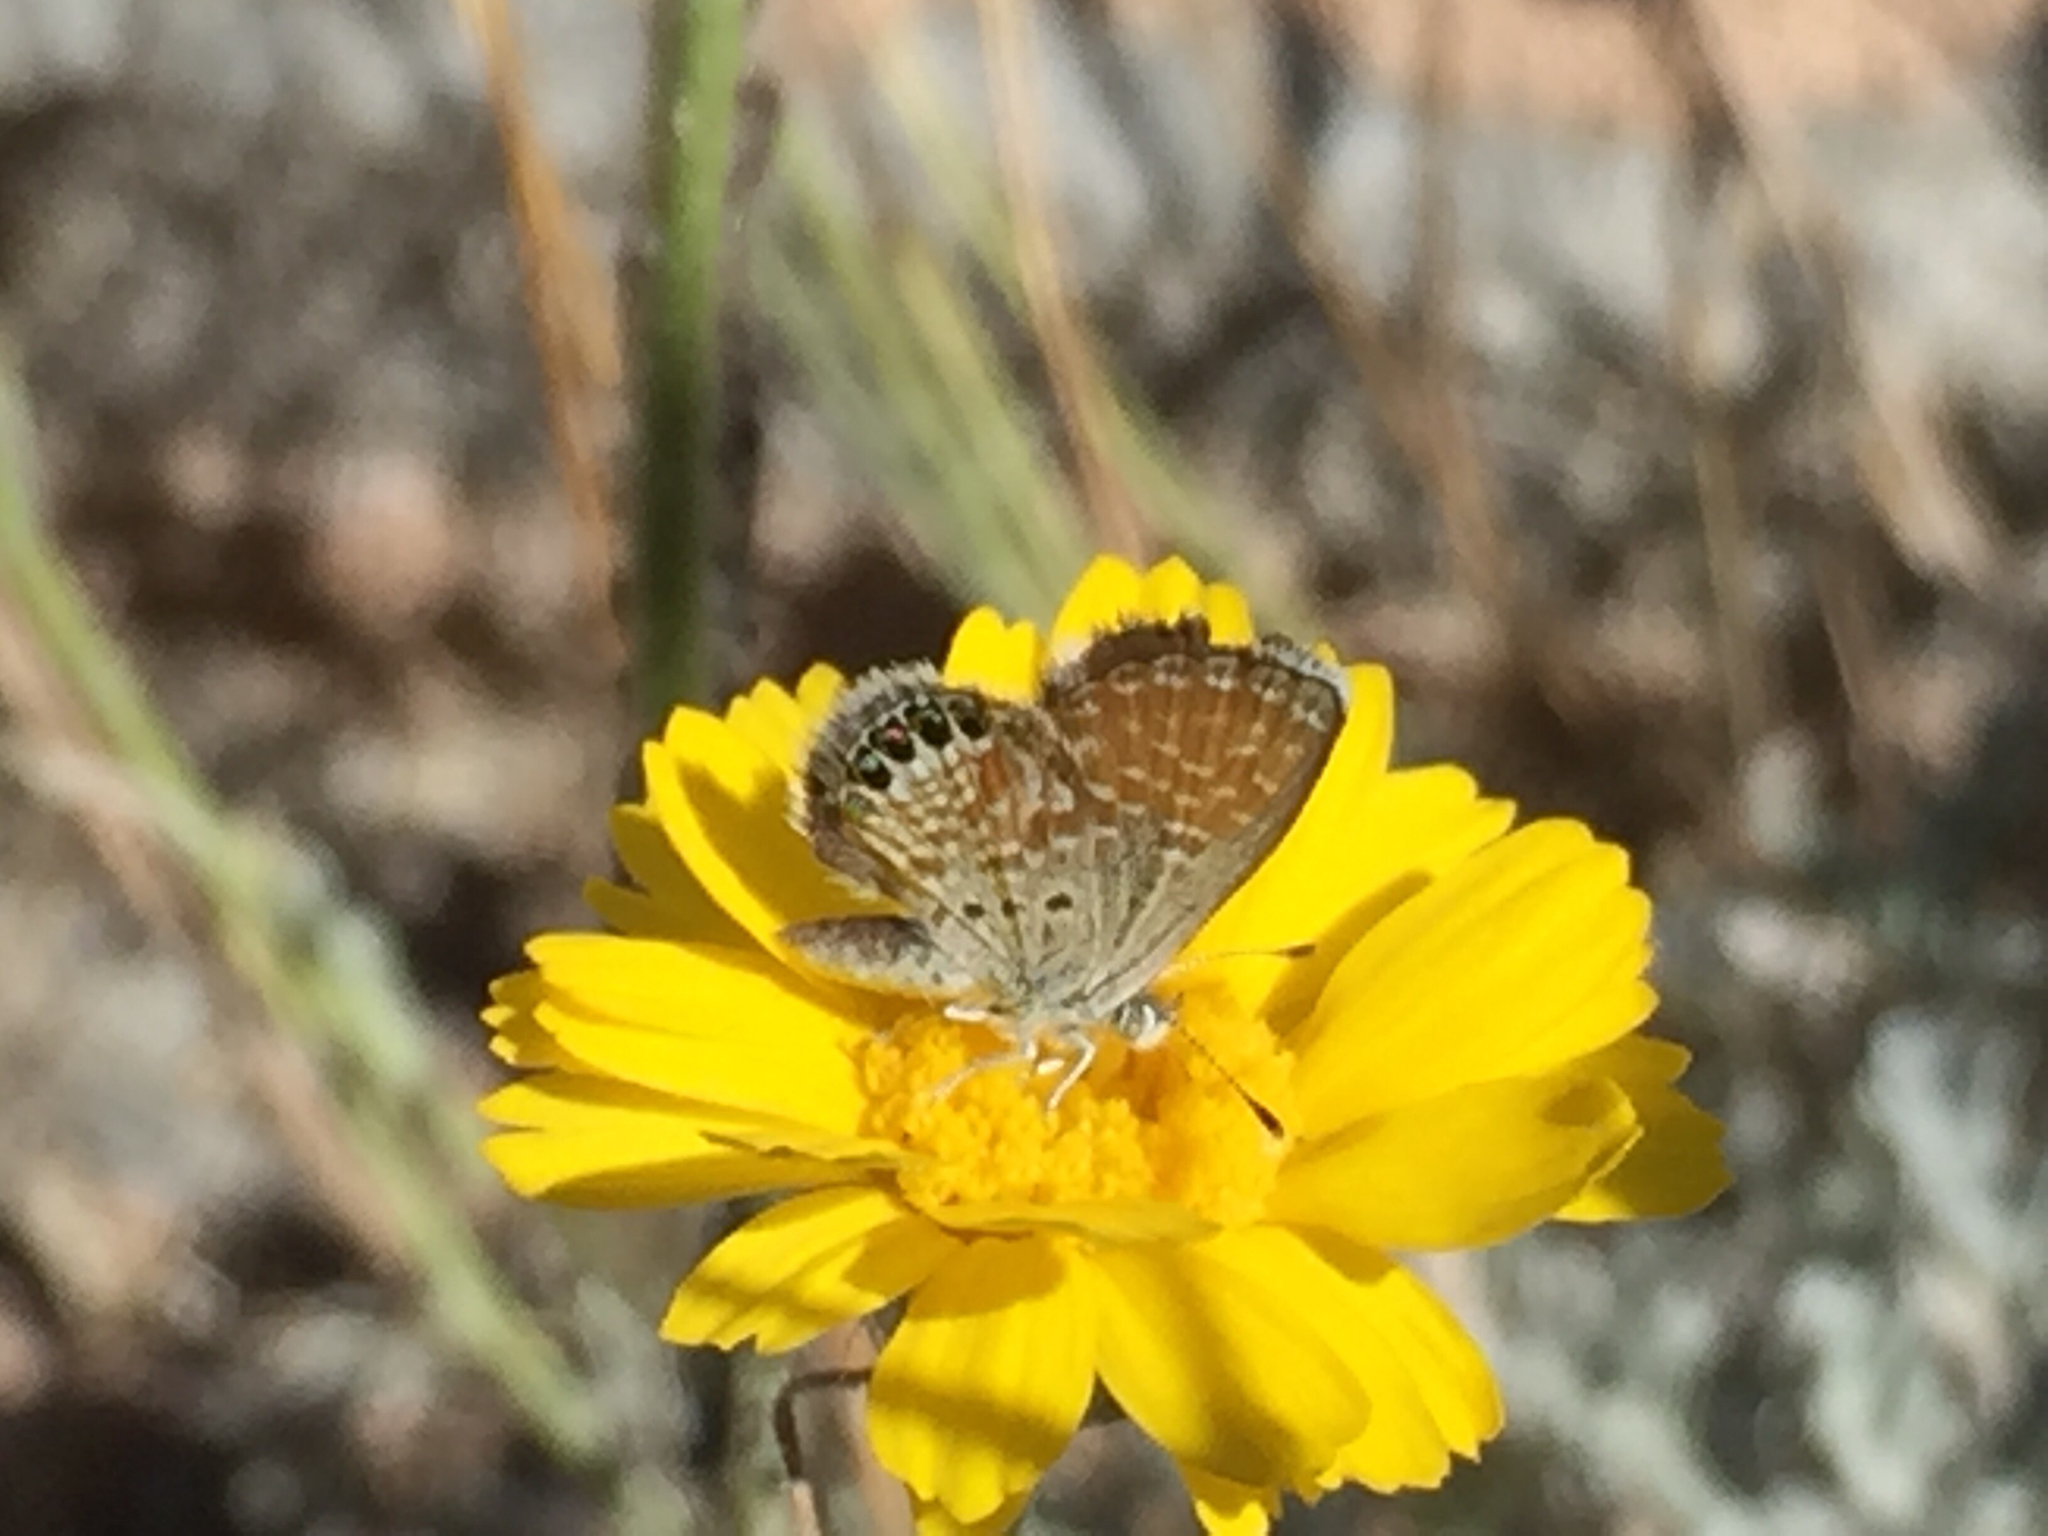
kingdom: Animalia
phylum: Arthropoda
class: Insecta
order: Lepidoptera
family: Lycaenidae
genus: Brephidium
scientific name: Brephidium exilis
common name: Pygmy blue
